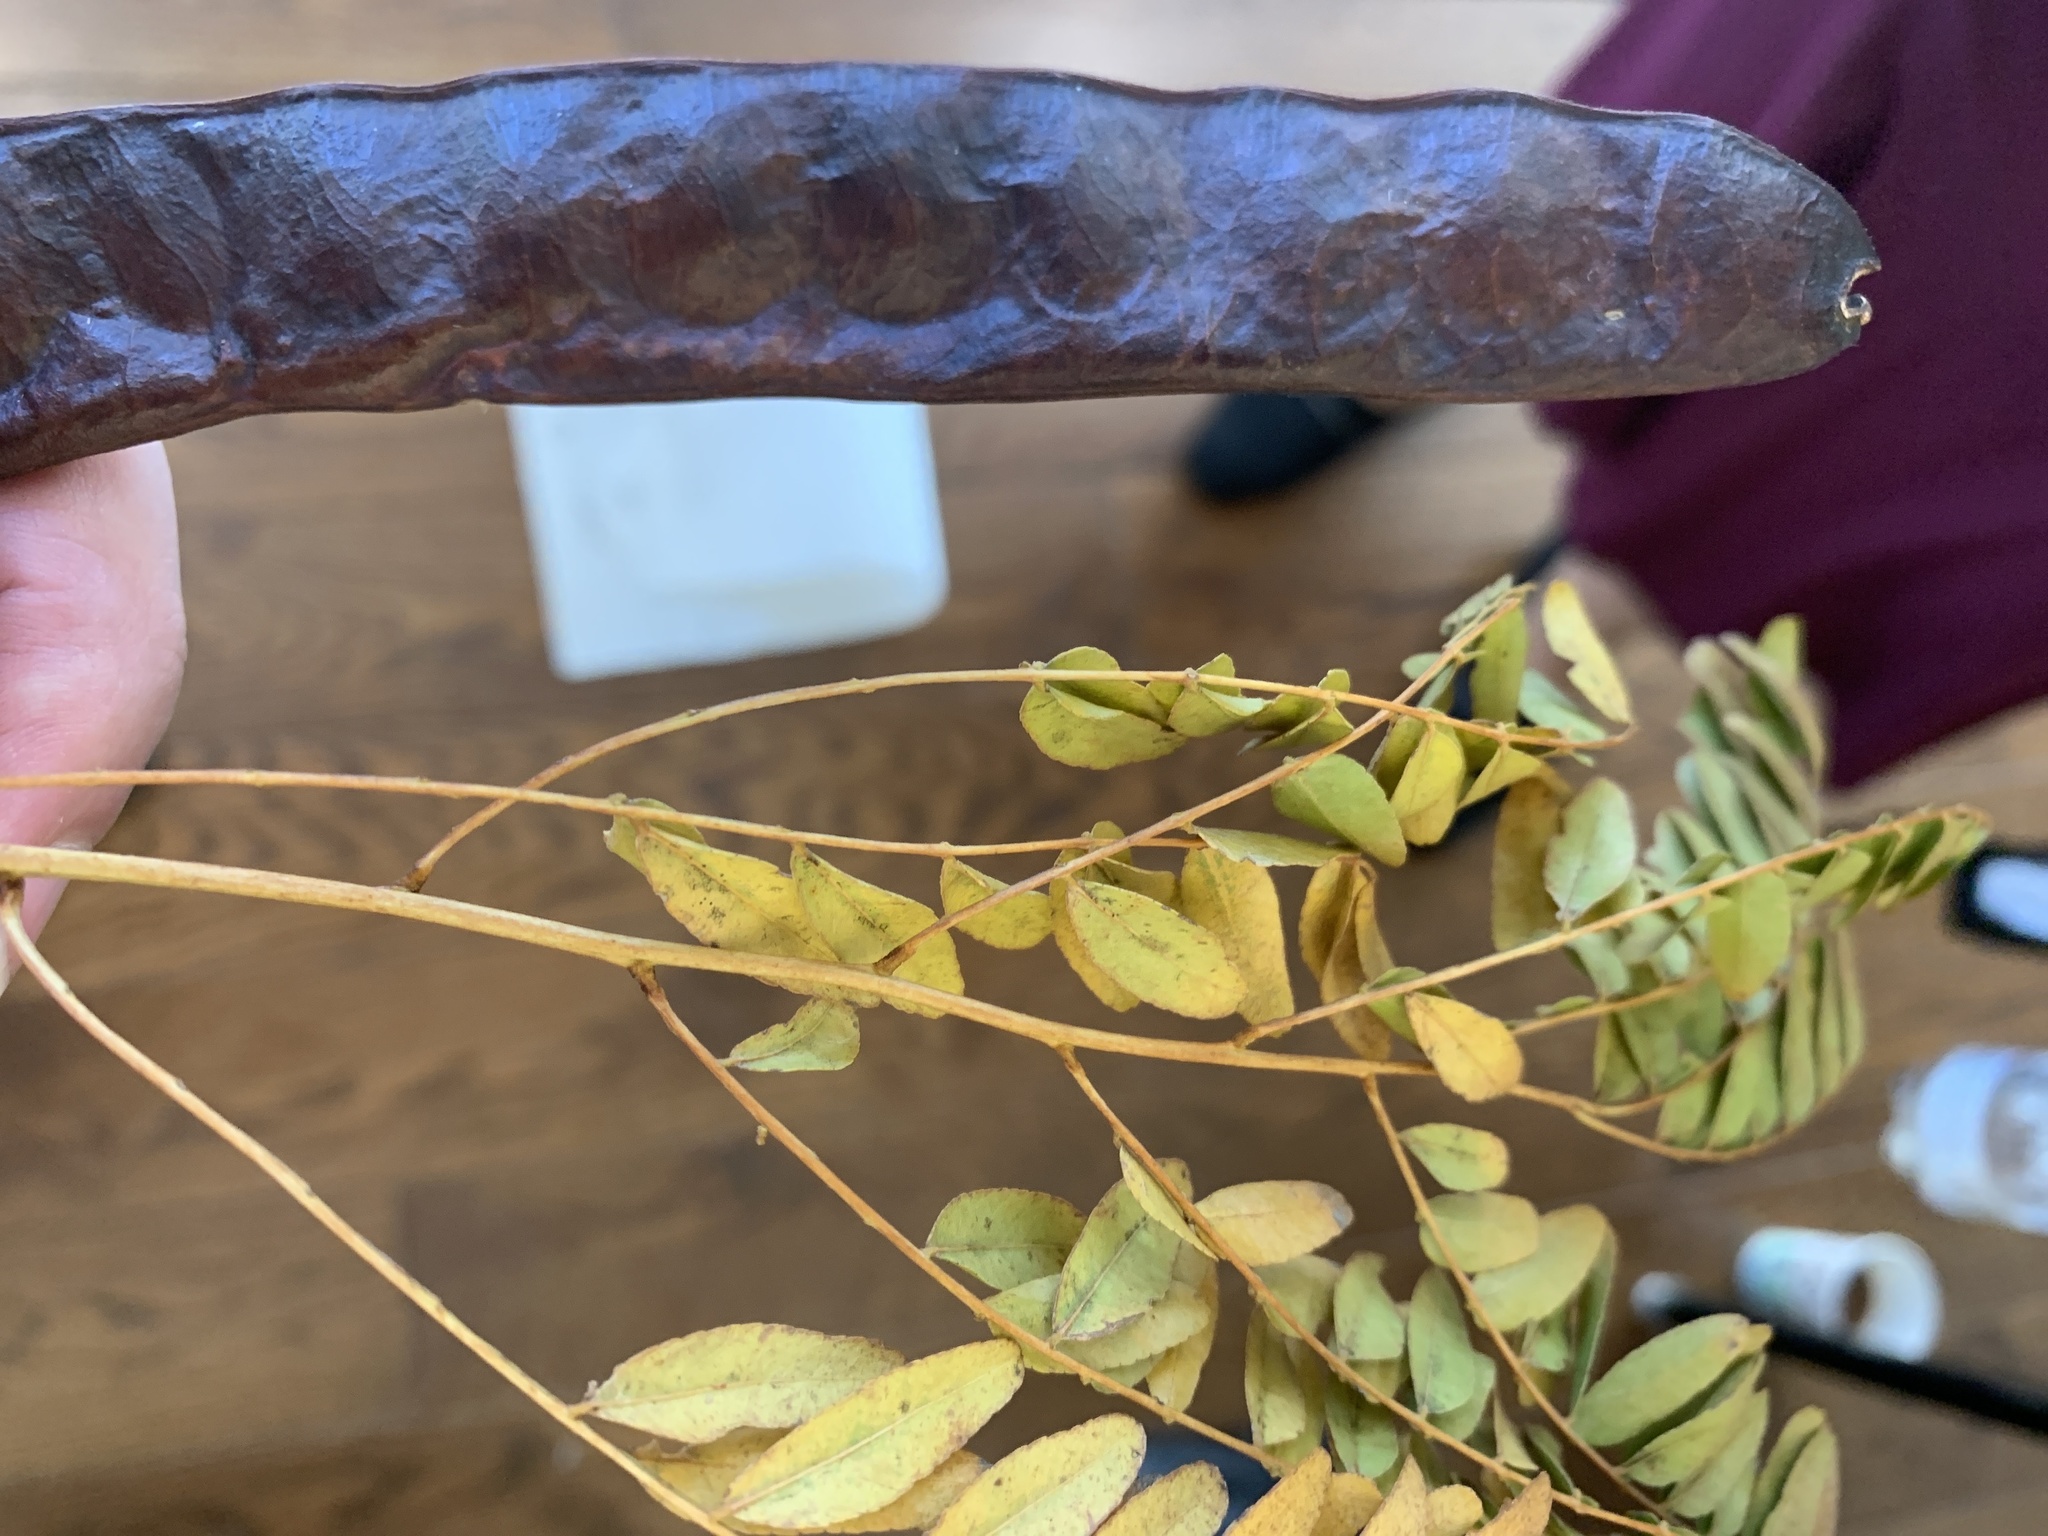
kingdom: Plantae
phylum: Tracheophyta
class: Magnoliopsida
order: Fabales
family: Fabaceae
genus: Gleditsia
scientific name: Gleditsia triacanthos
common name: Common honeylocust
